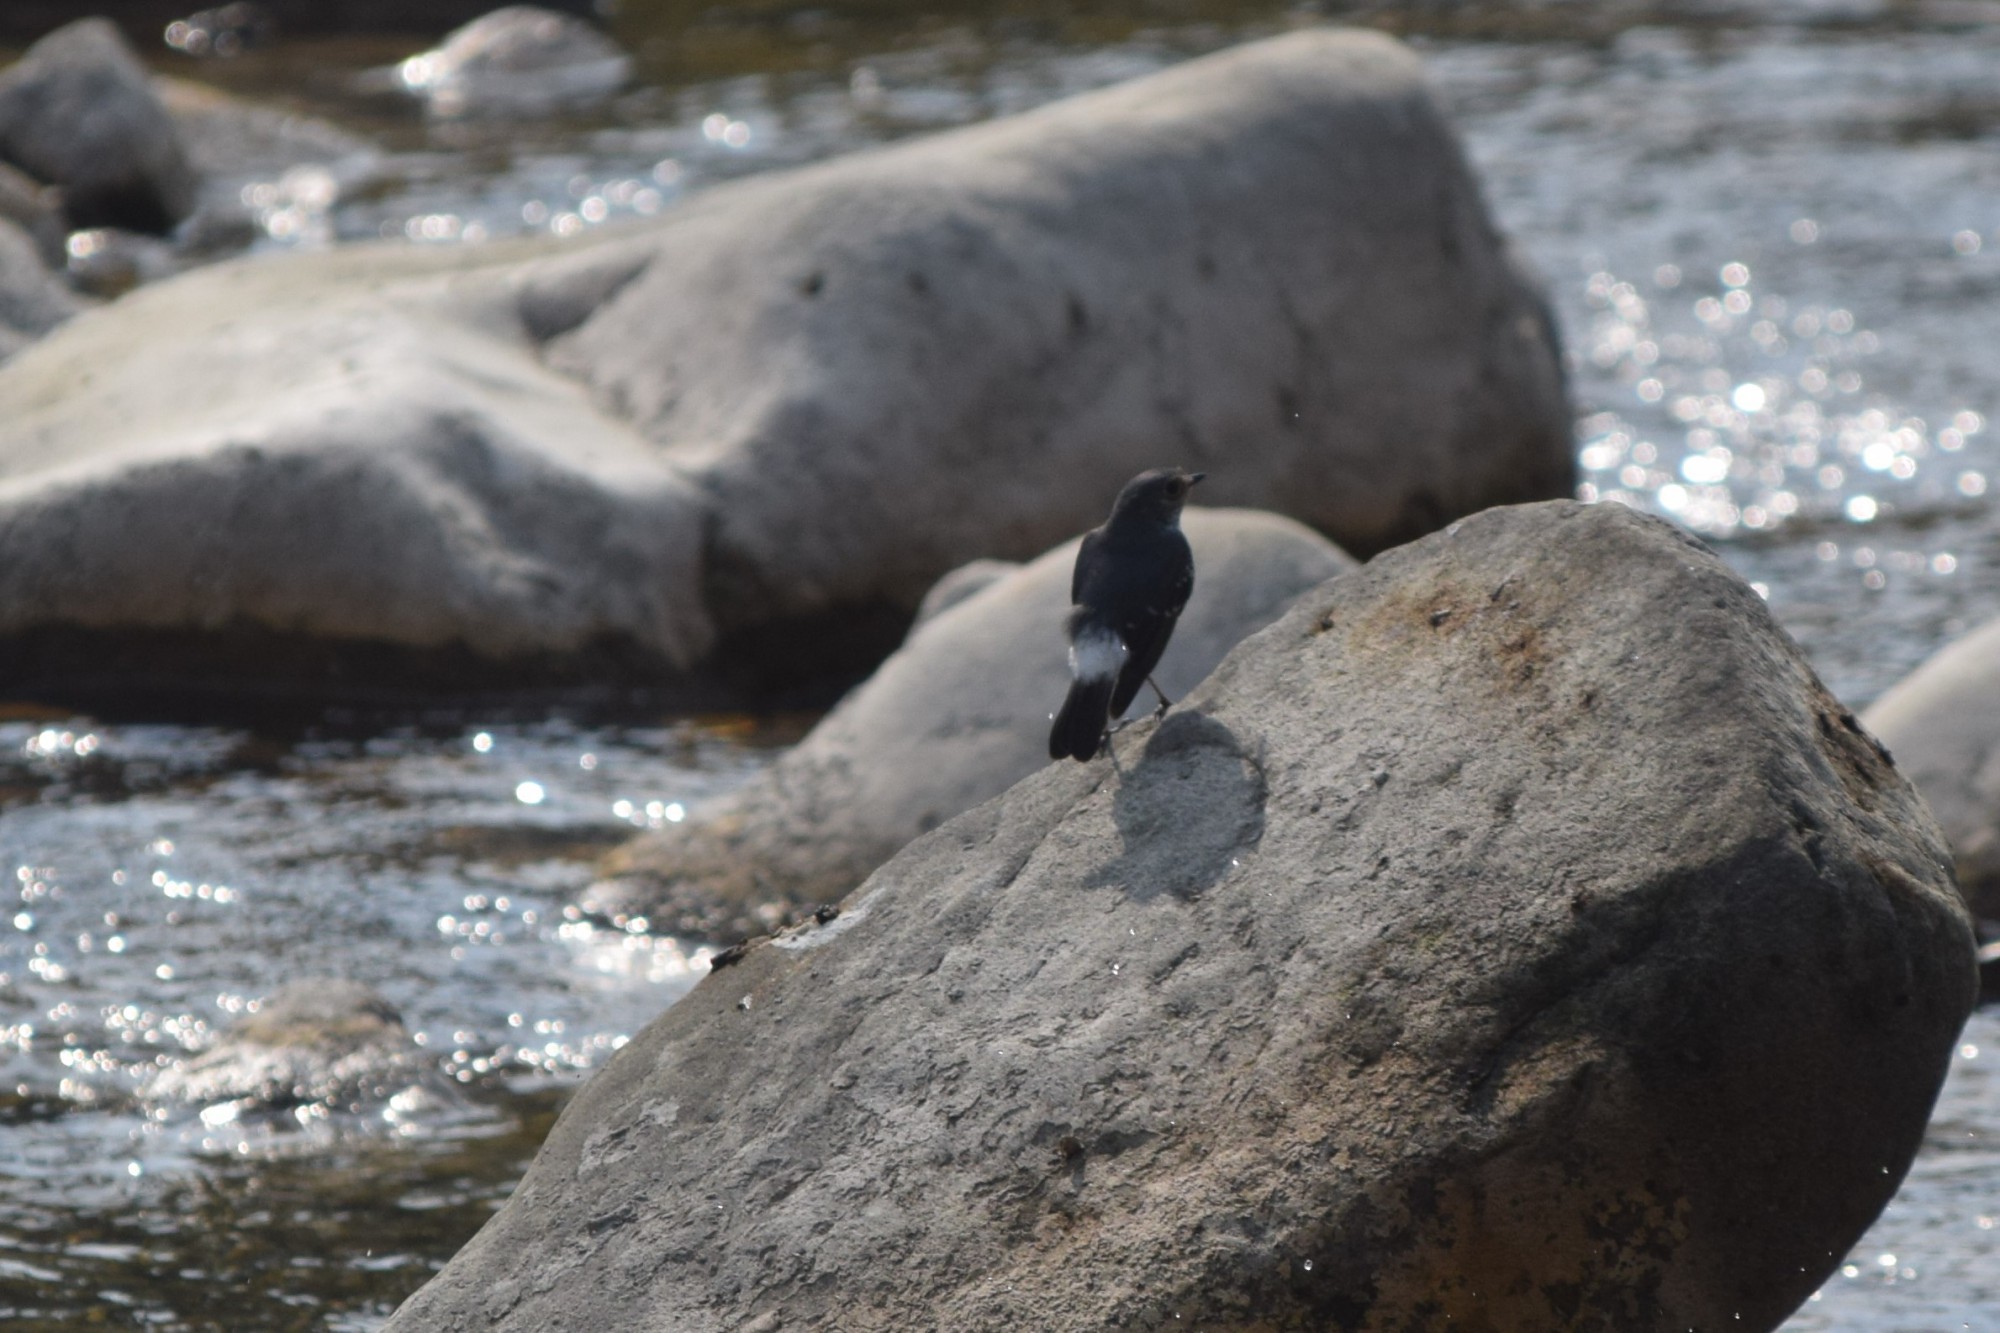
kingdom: Animalia
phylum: Chordata
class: Aves
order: Passeriformes
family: Muscicapidae
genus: Phoenicurus
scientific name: Phoenicurus fuliginosus
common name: Plumbeous water redstart
